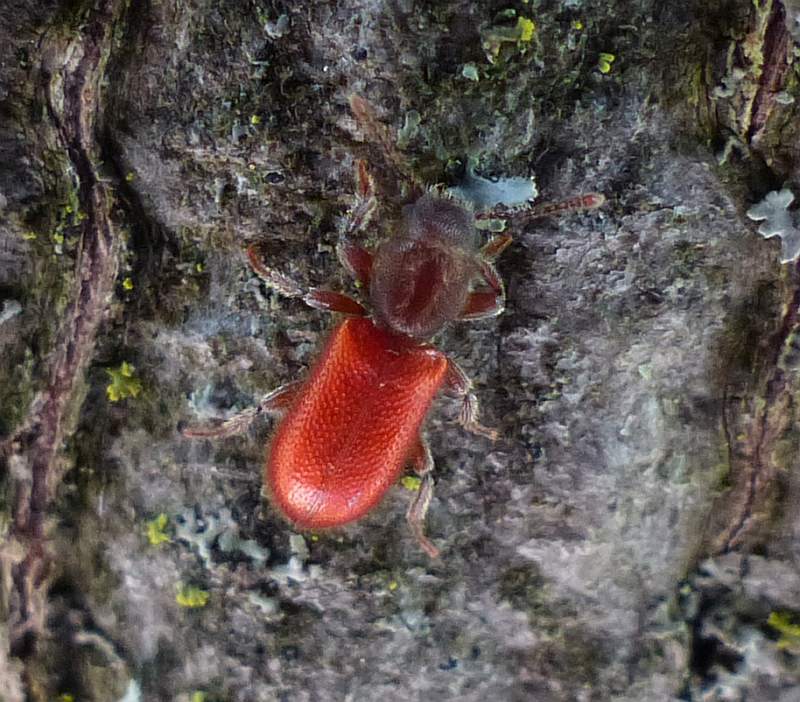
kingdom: Animalia
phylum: Arthropoda
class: Insecta
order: Coleoptera
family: Thanerocleridae
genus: Zenodosus
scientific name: Zenodosus sanguineus
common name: Blood-colored checkered beetle
